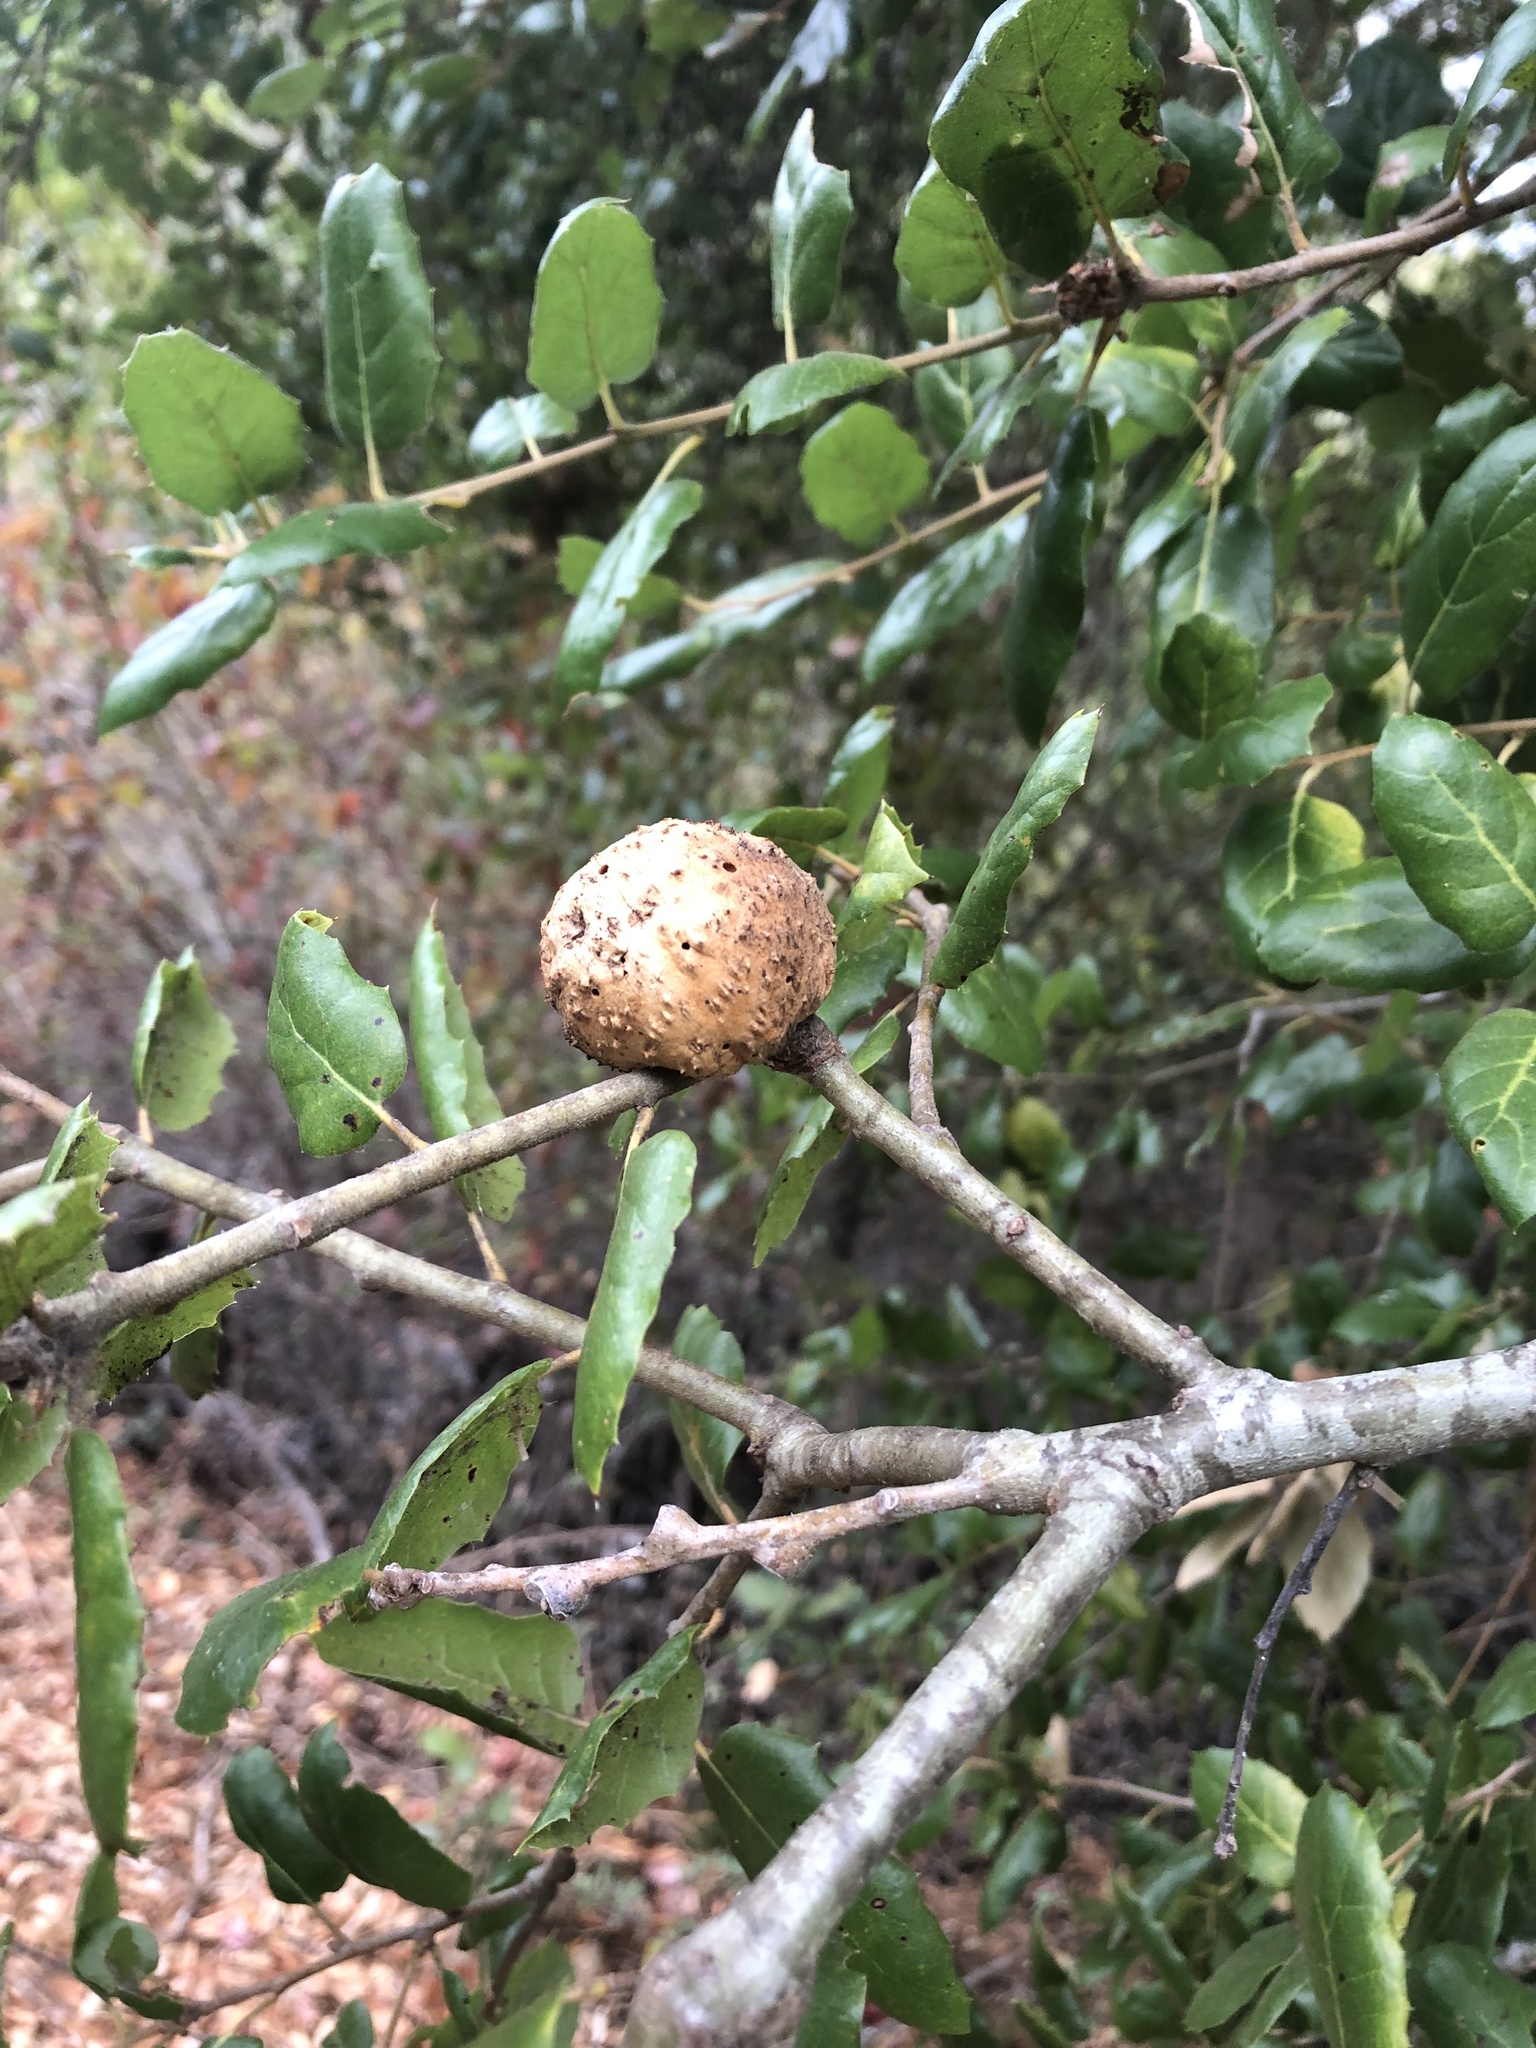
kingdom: Animalia
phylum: Arthropoda
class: Insecta
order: Hymenoptera
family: Cynipidae
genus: Amphibolips
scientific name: Amphibolips quercuspomiformis
